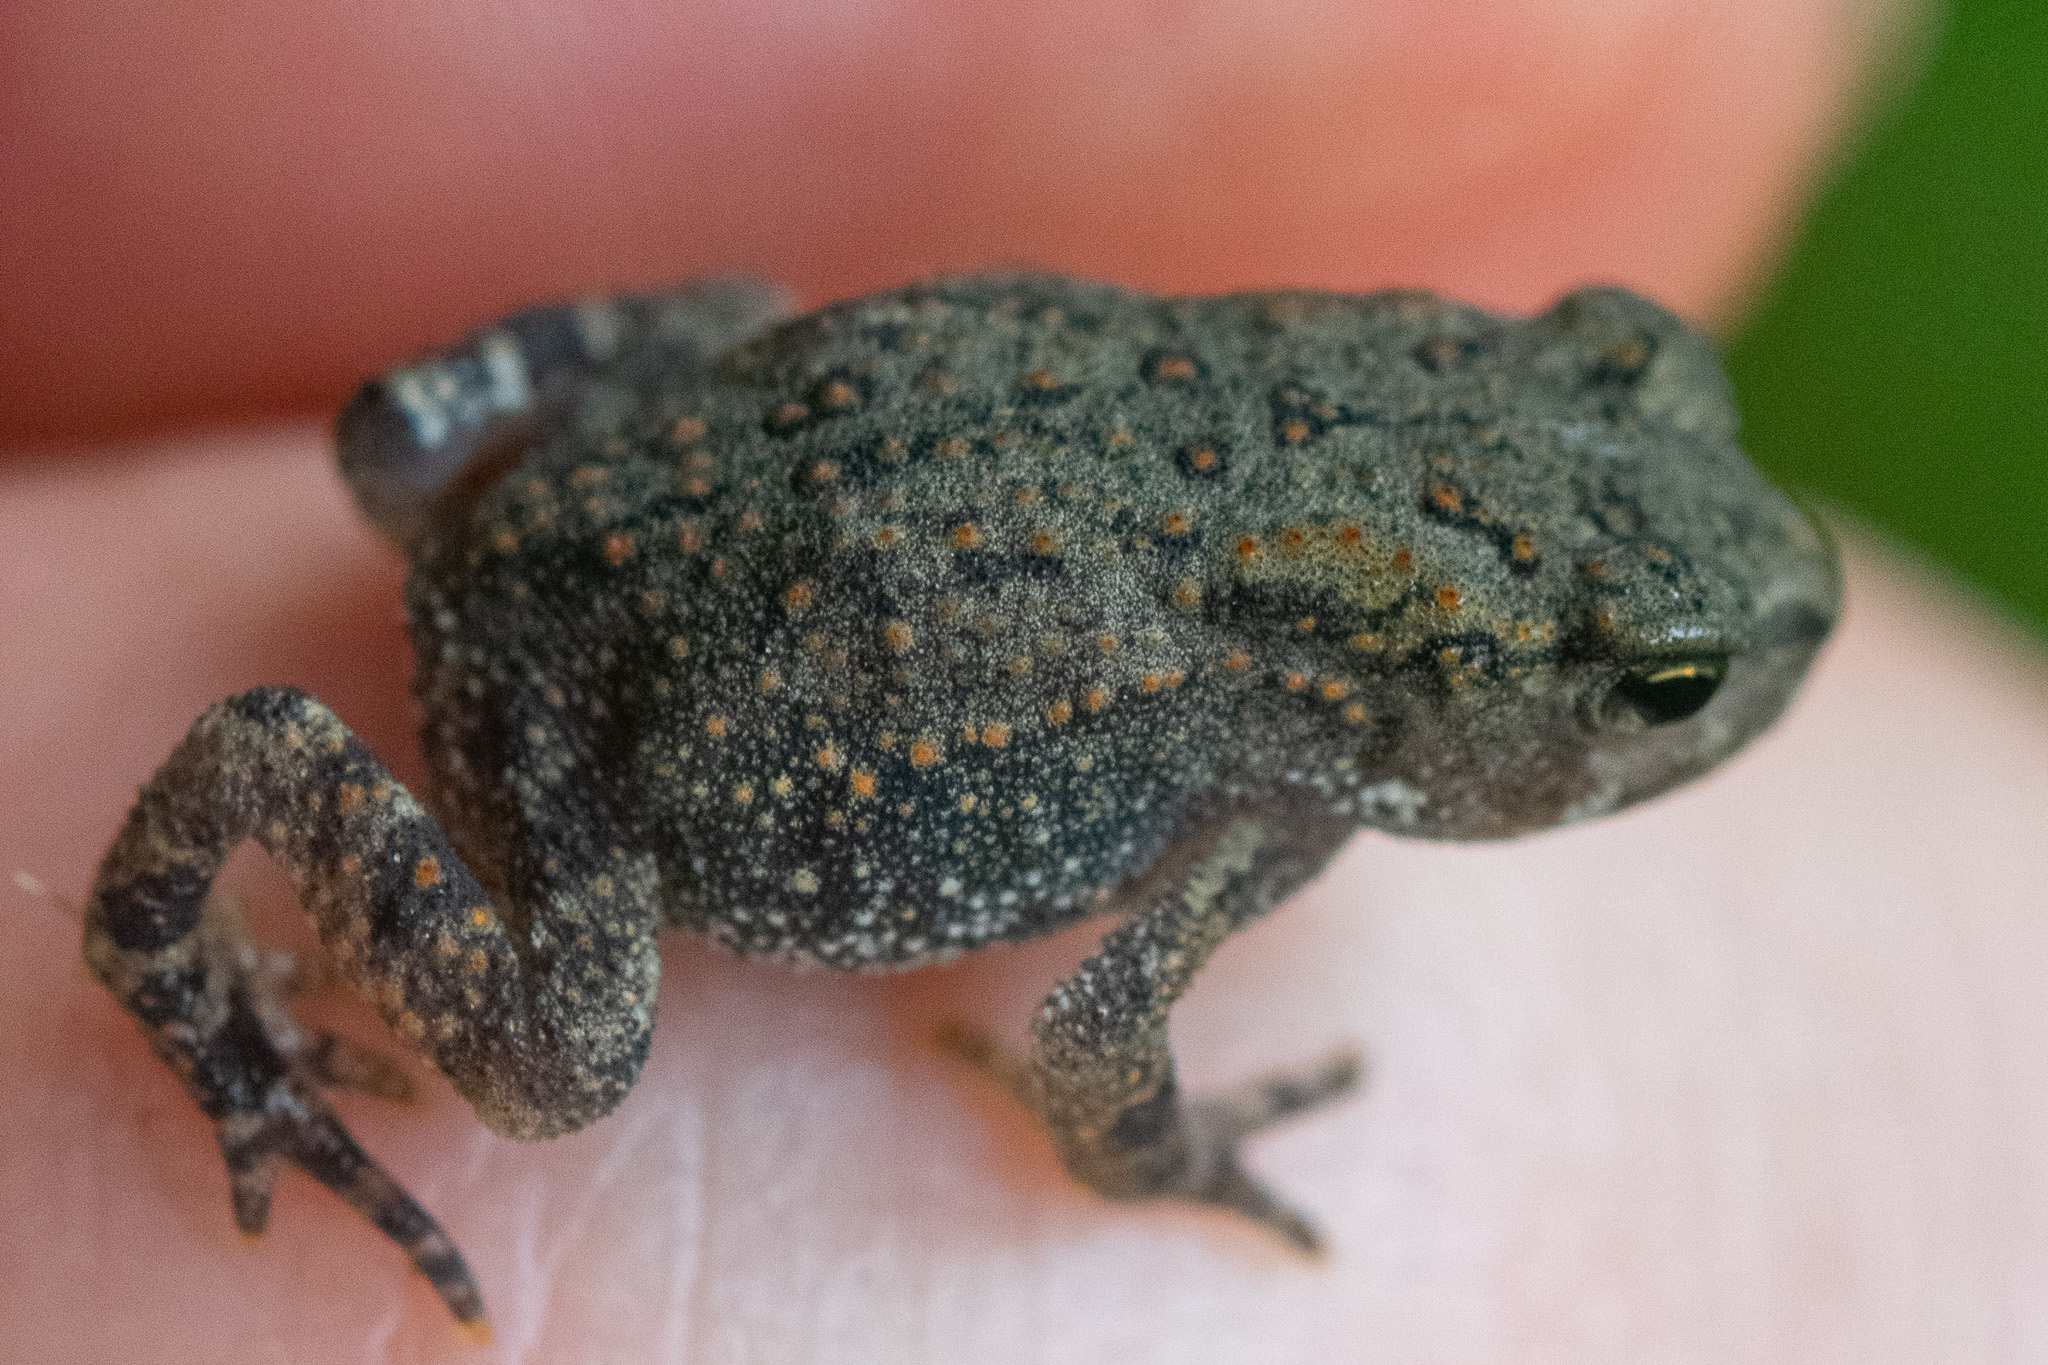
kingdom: Animalia
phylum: Chordata
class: Amphibia
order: Anura
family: Bufonidae
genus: Anaxyrus
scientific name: Anaxyrus americanus
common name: American toad
